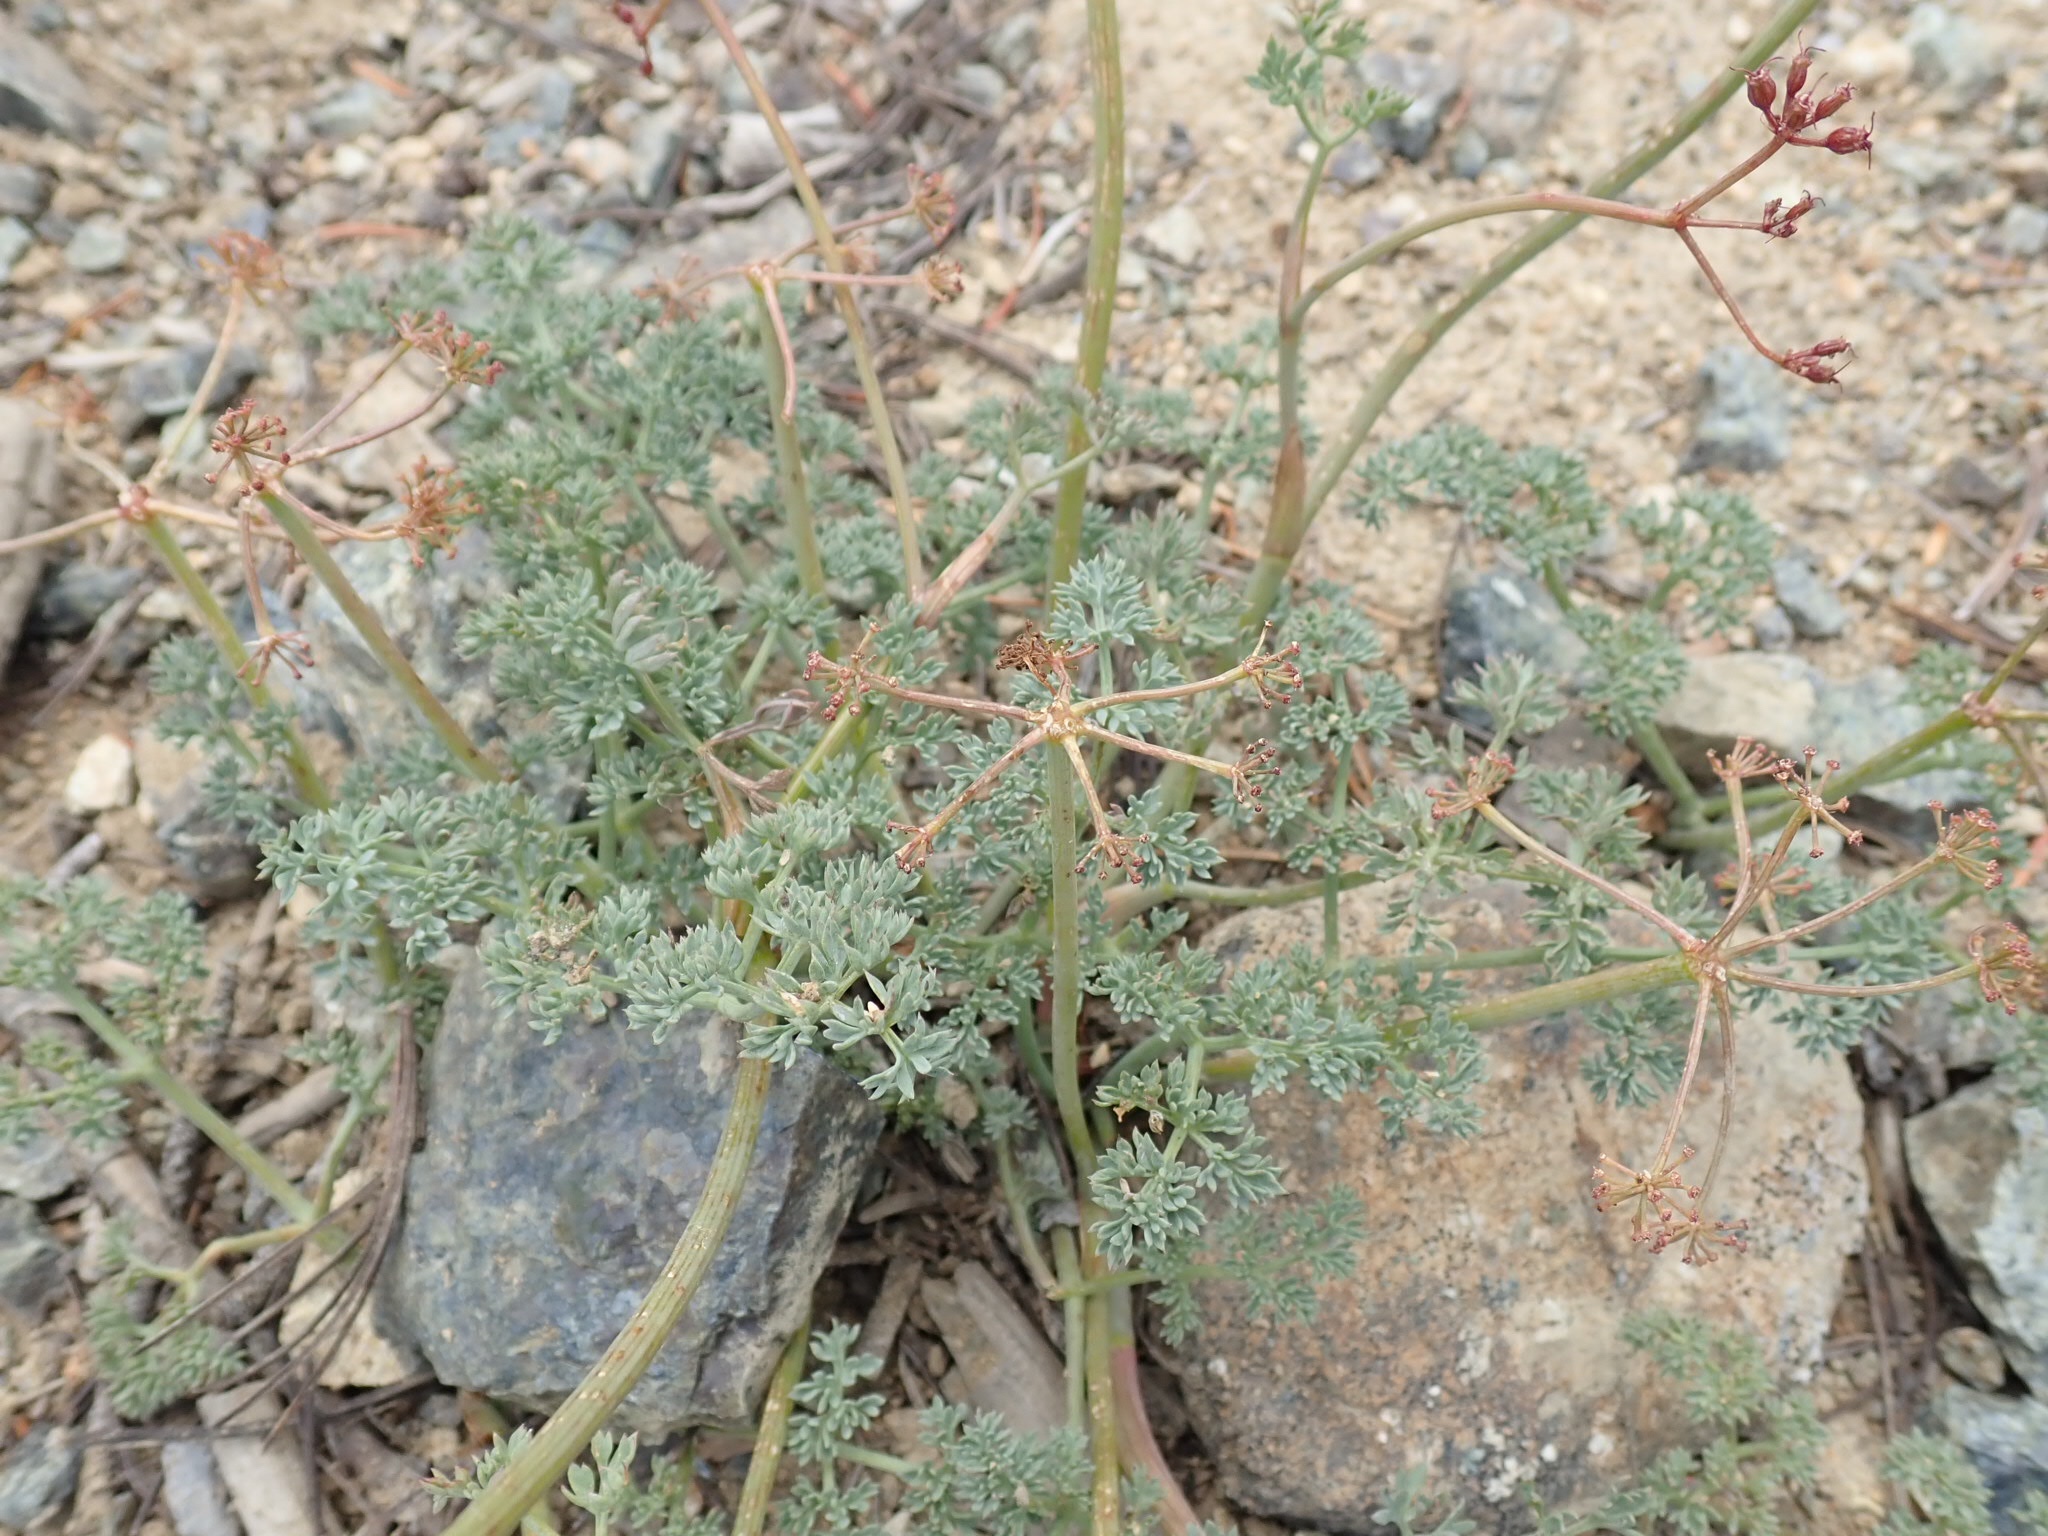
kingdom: Plantae
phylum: Tracheophyta
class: Magnoliopsida
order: Apiales
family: Apiaceae
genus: Lomatium
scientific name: Lomatium cuspidatum
